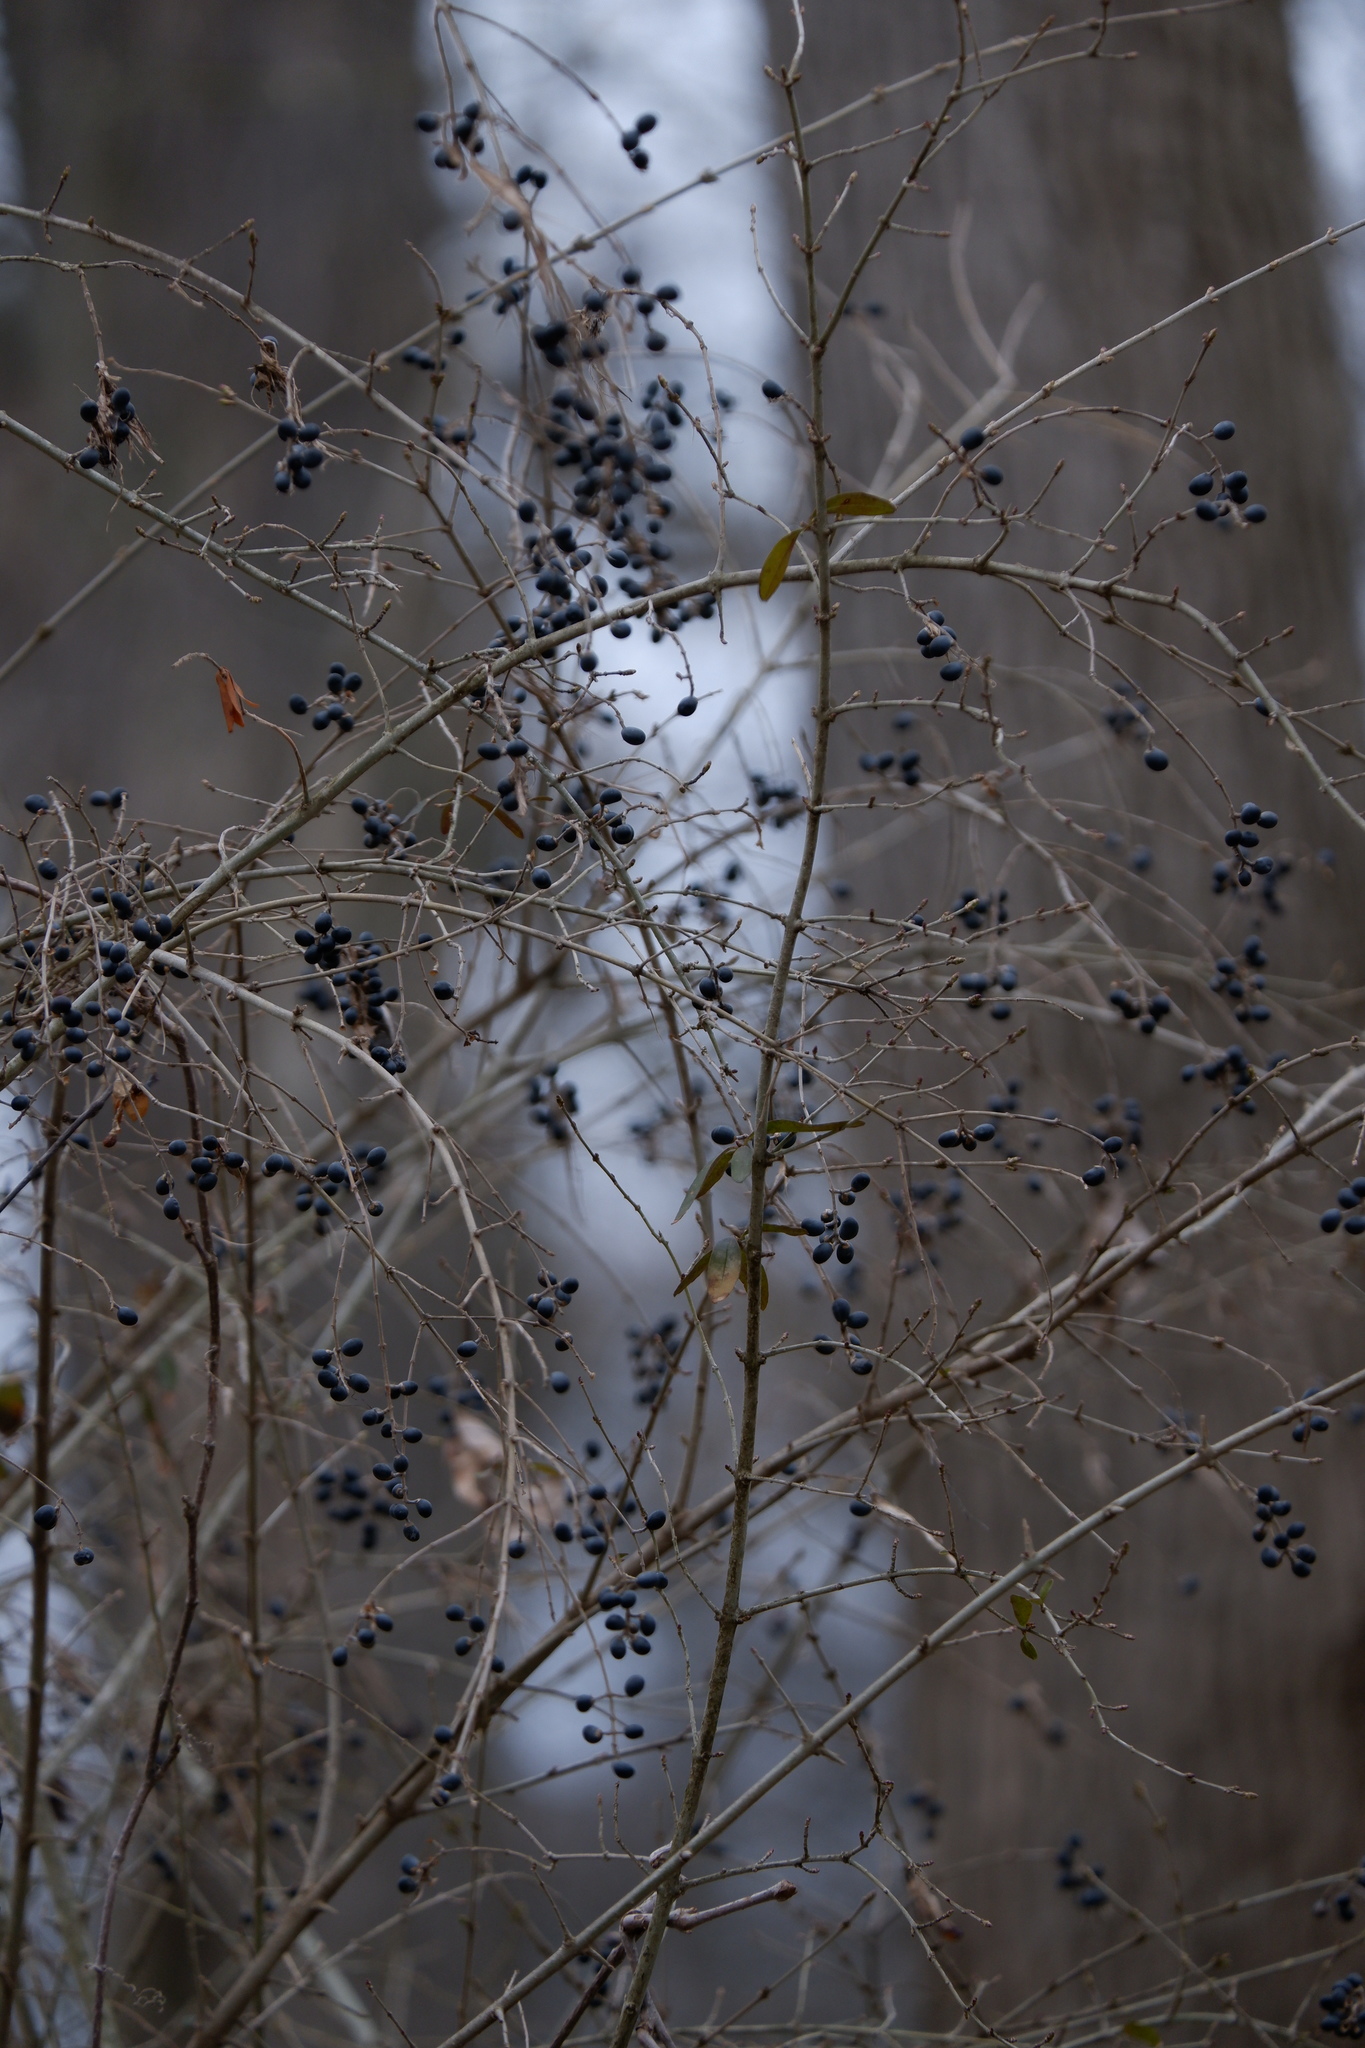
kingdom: Plantae
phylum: Tracheophyta
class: Magnoliopsida
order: Lamiales
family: Oleaceae
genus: Ligustrum
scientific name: Ligustrum obtusifolium
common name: Border privet
